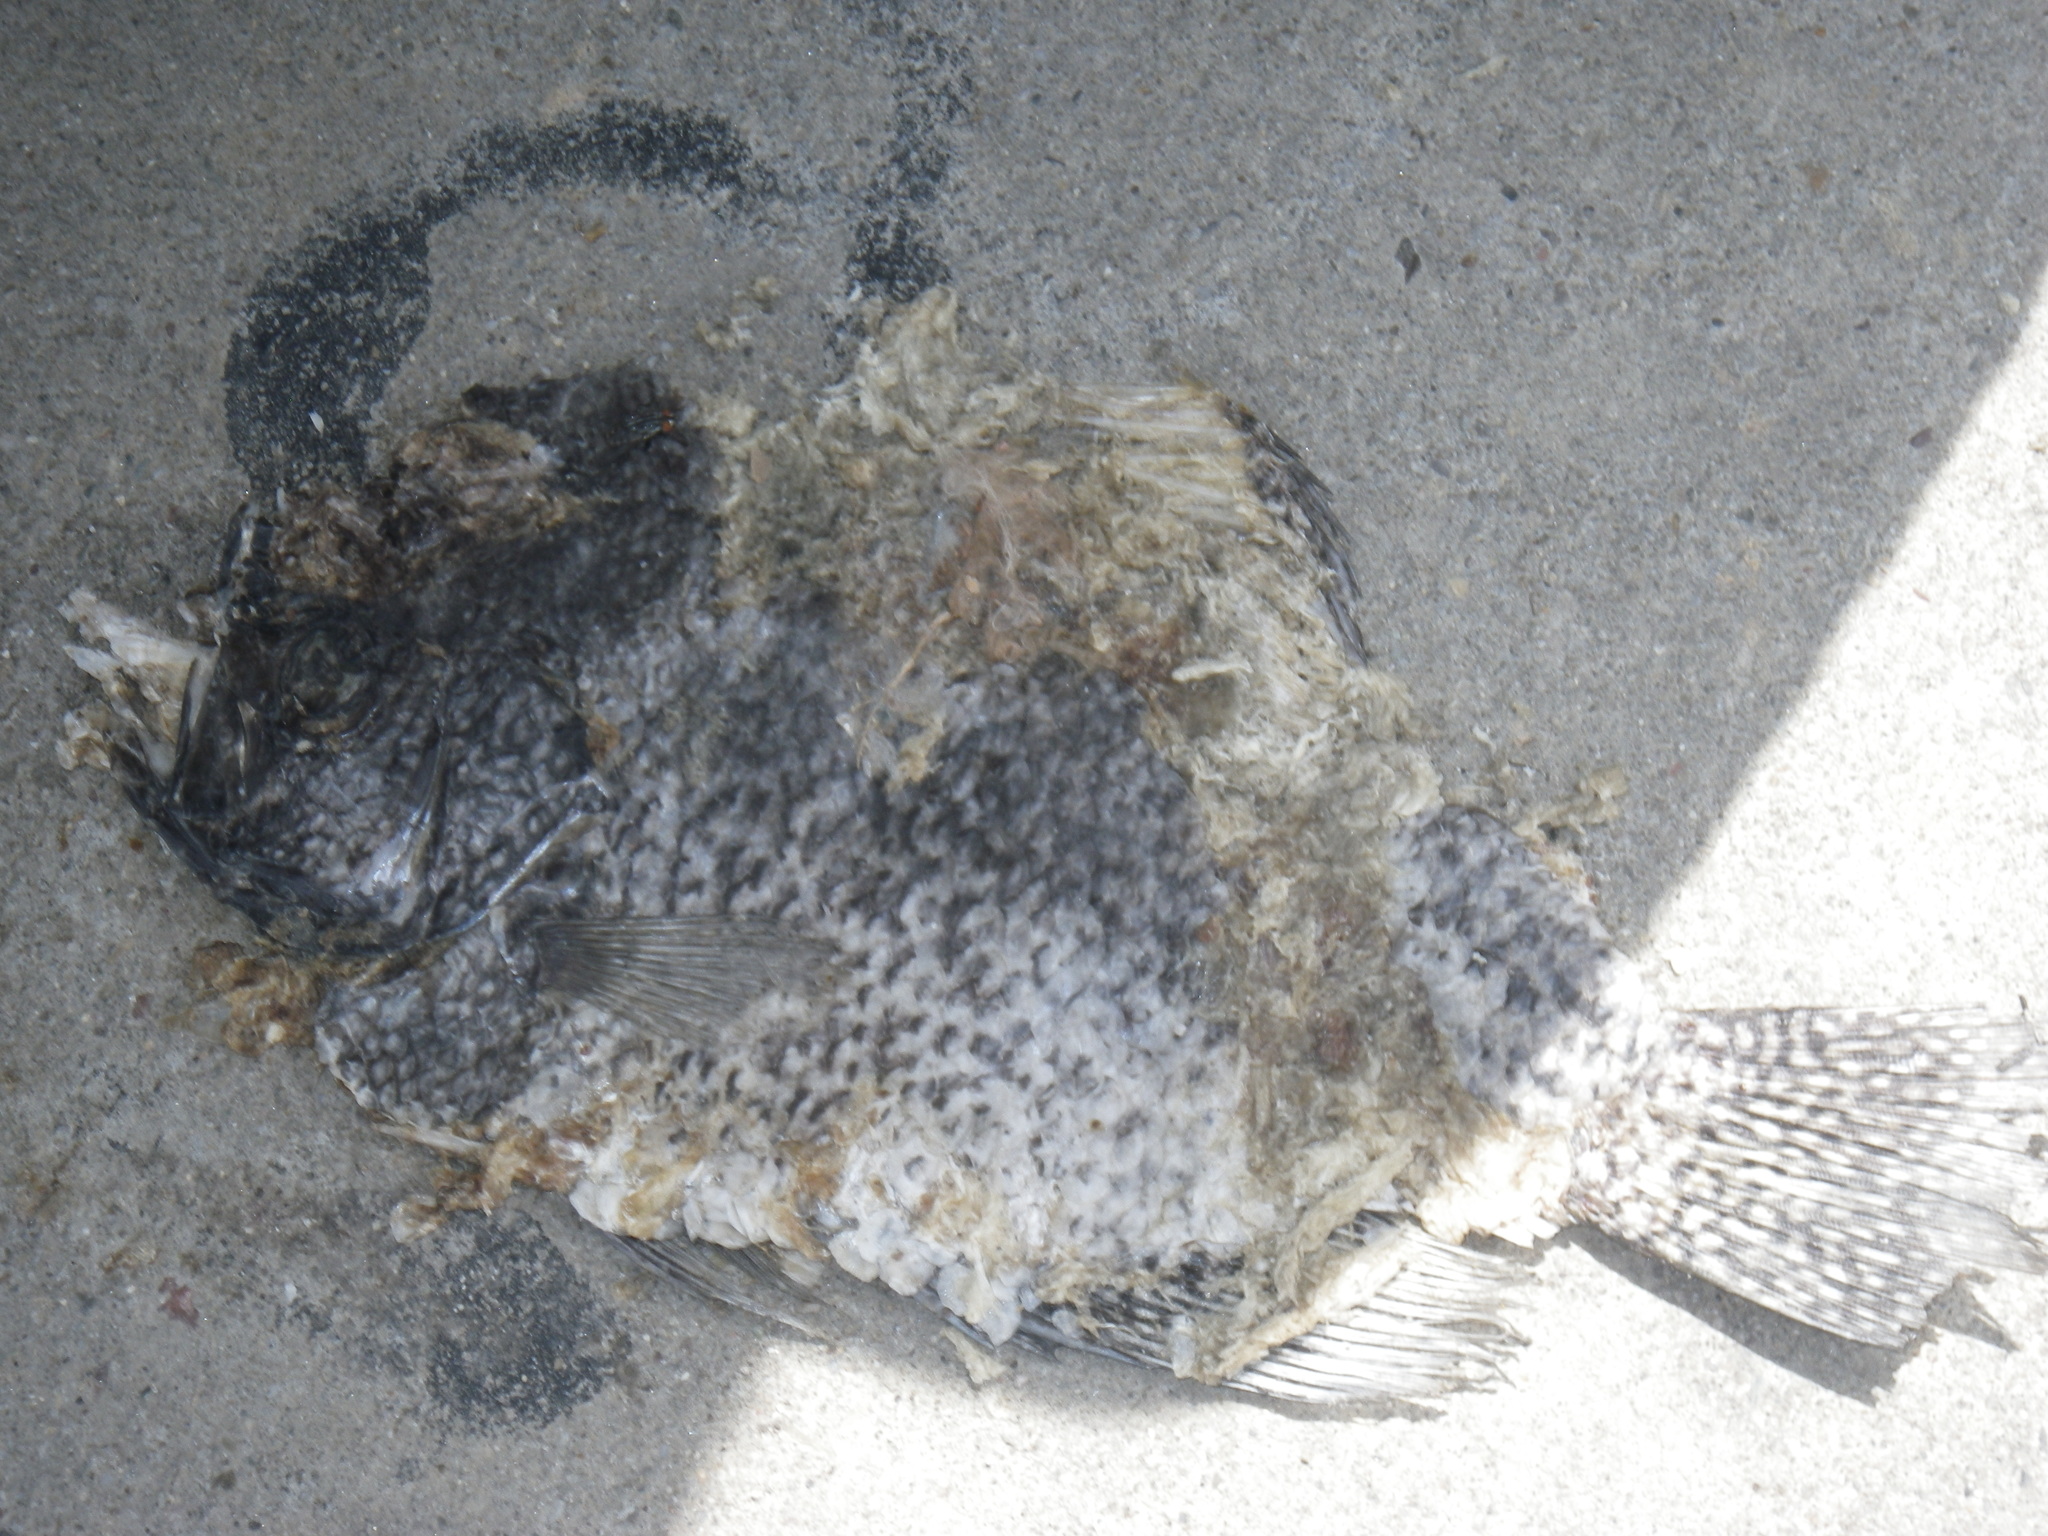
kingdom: Animalia
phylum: Chordata
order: Perciformes
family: Centrarchidae
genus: Pomoxis
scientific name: Pomoxis nigromaculatus
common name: Black crappie
